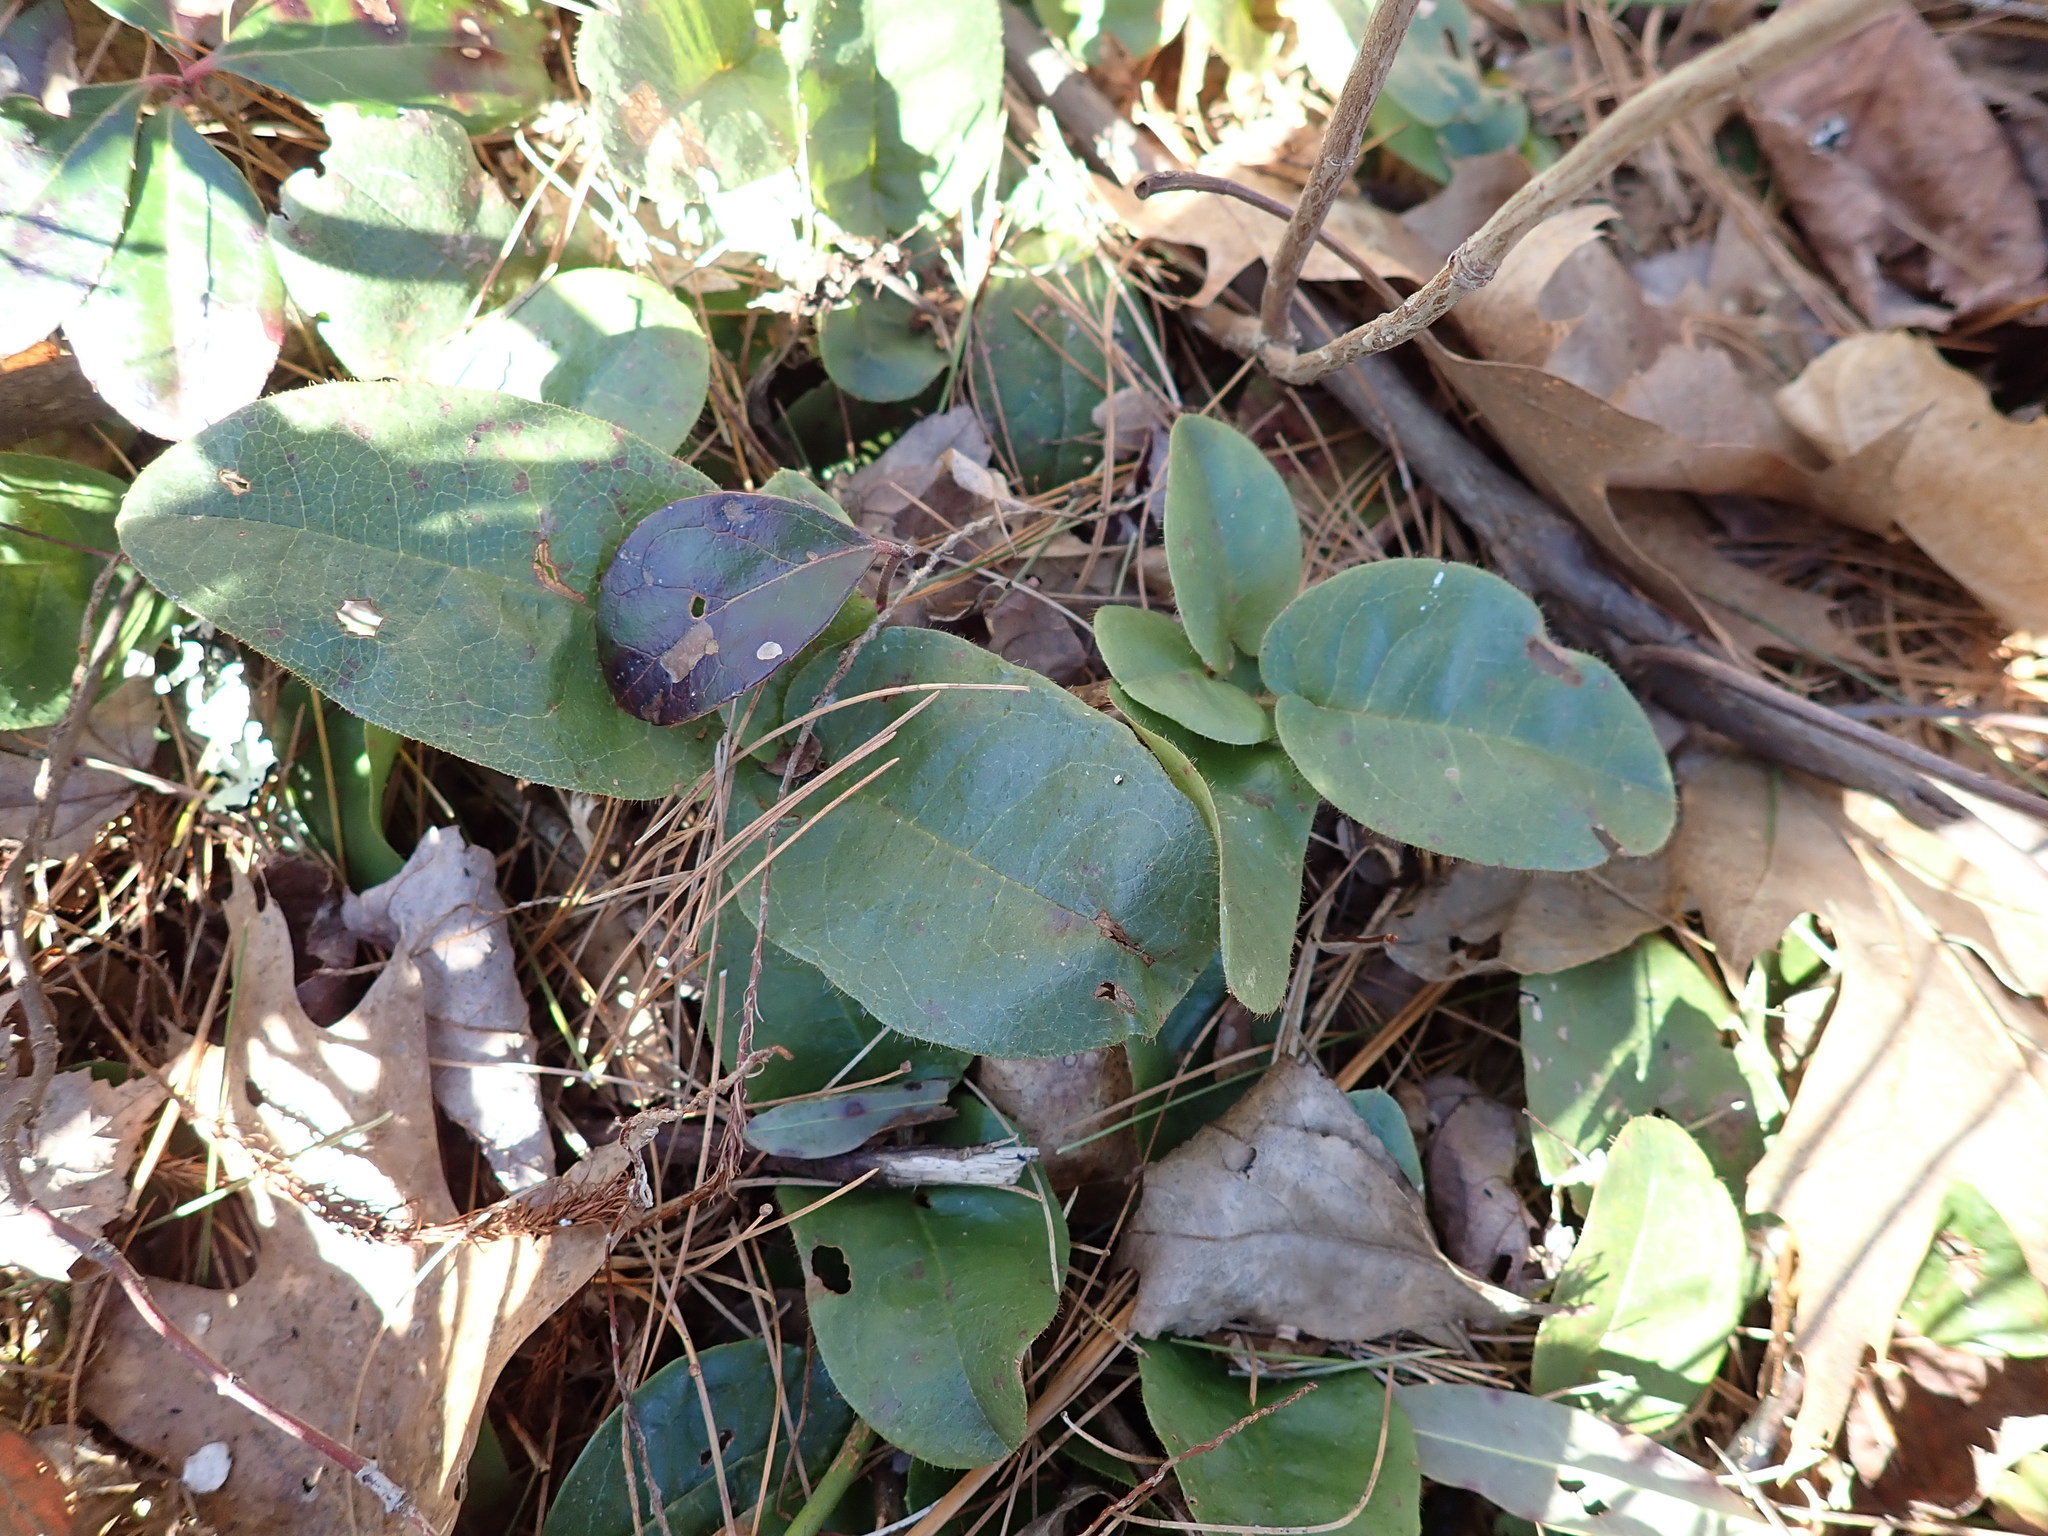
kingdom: Plantae
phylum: Tracheophyta
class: Magnoliopsida
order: Ericales
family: Ericaceae
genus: Epigaea
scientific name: Epigaea repens
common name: Gravelroot
